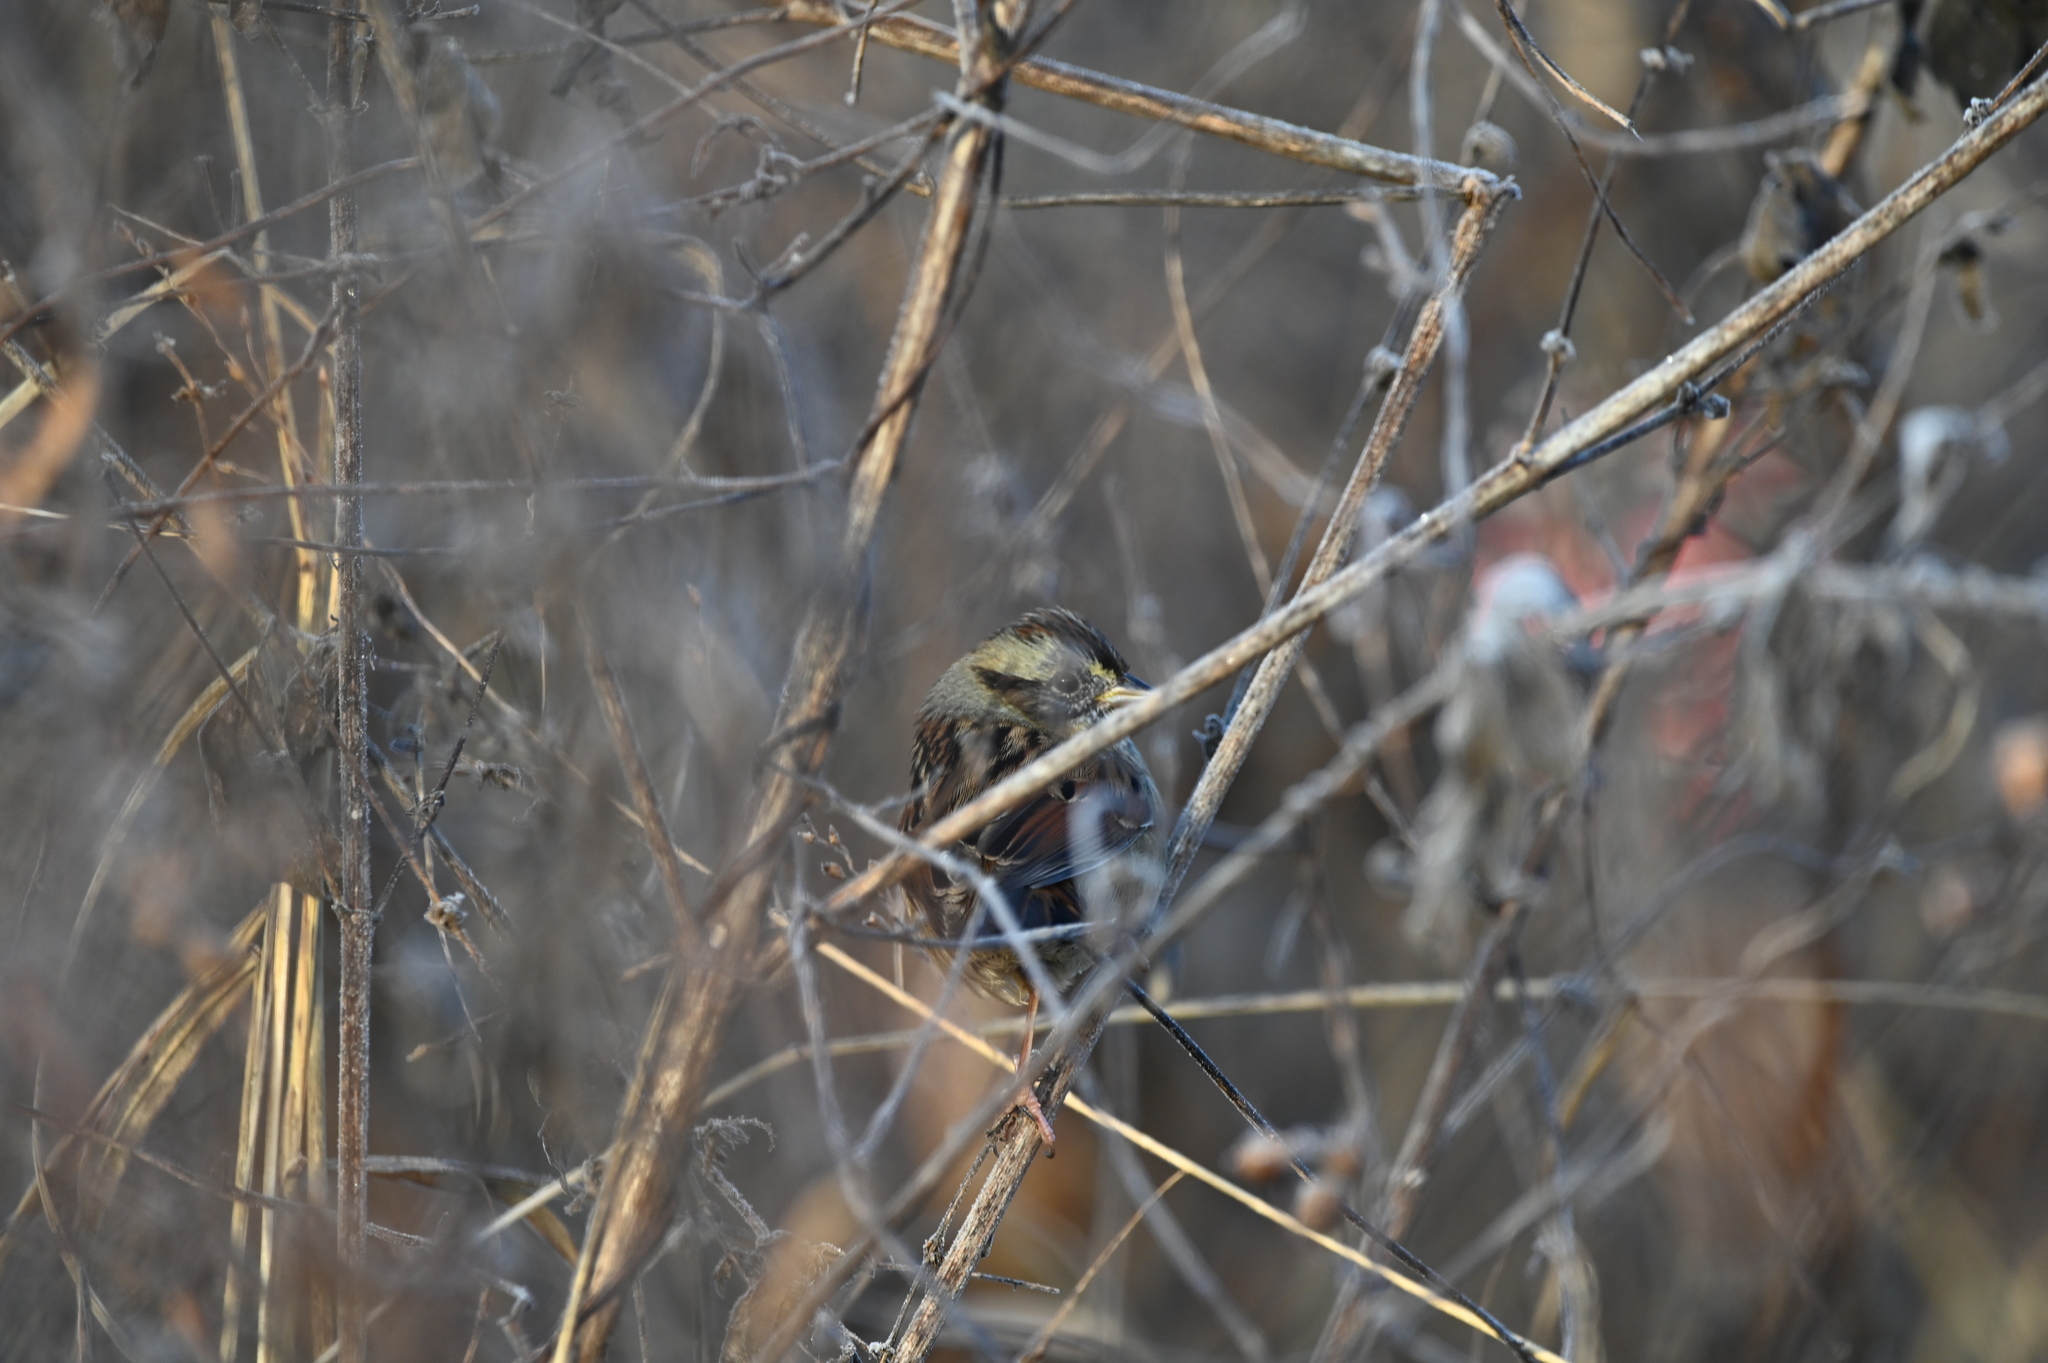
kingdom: Animalia
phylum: Chordata
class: Aves
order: Passeriformes
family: Passerellidae
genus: Melospiza
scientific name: Melospiza georgiana
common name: Swamp sparrow
